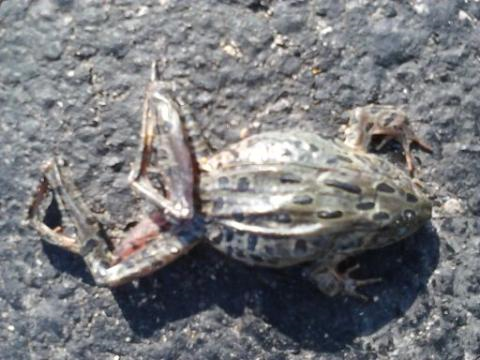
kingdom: Animalia
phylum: Chordata
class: Amphibia
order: Anura
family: Ranidae
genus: Lithobates
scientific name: Lithobates pipiens
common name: Northern leopard frog
